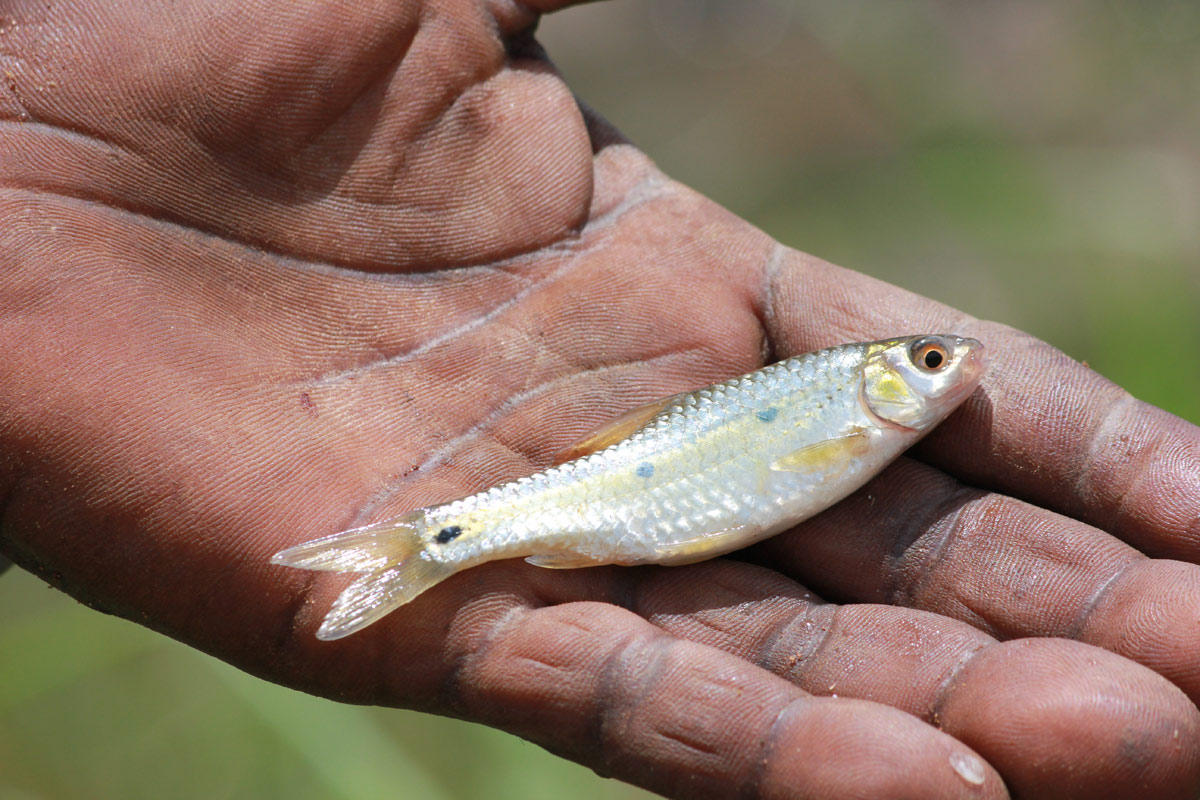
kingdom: Animalia
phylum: Chordata
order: Cypriniformes
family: Cyprinidae
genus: Enteromius
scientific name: Enteromius trimaculatus
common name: Threespot barb
